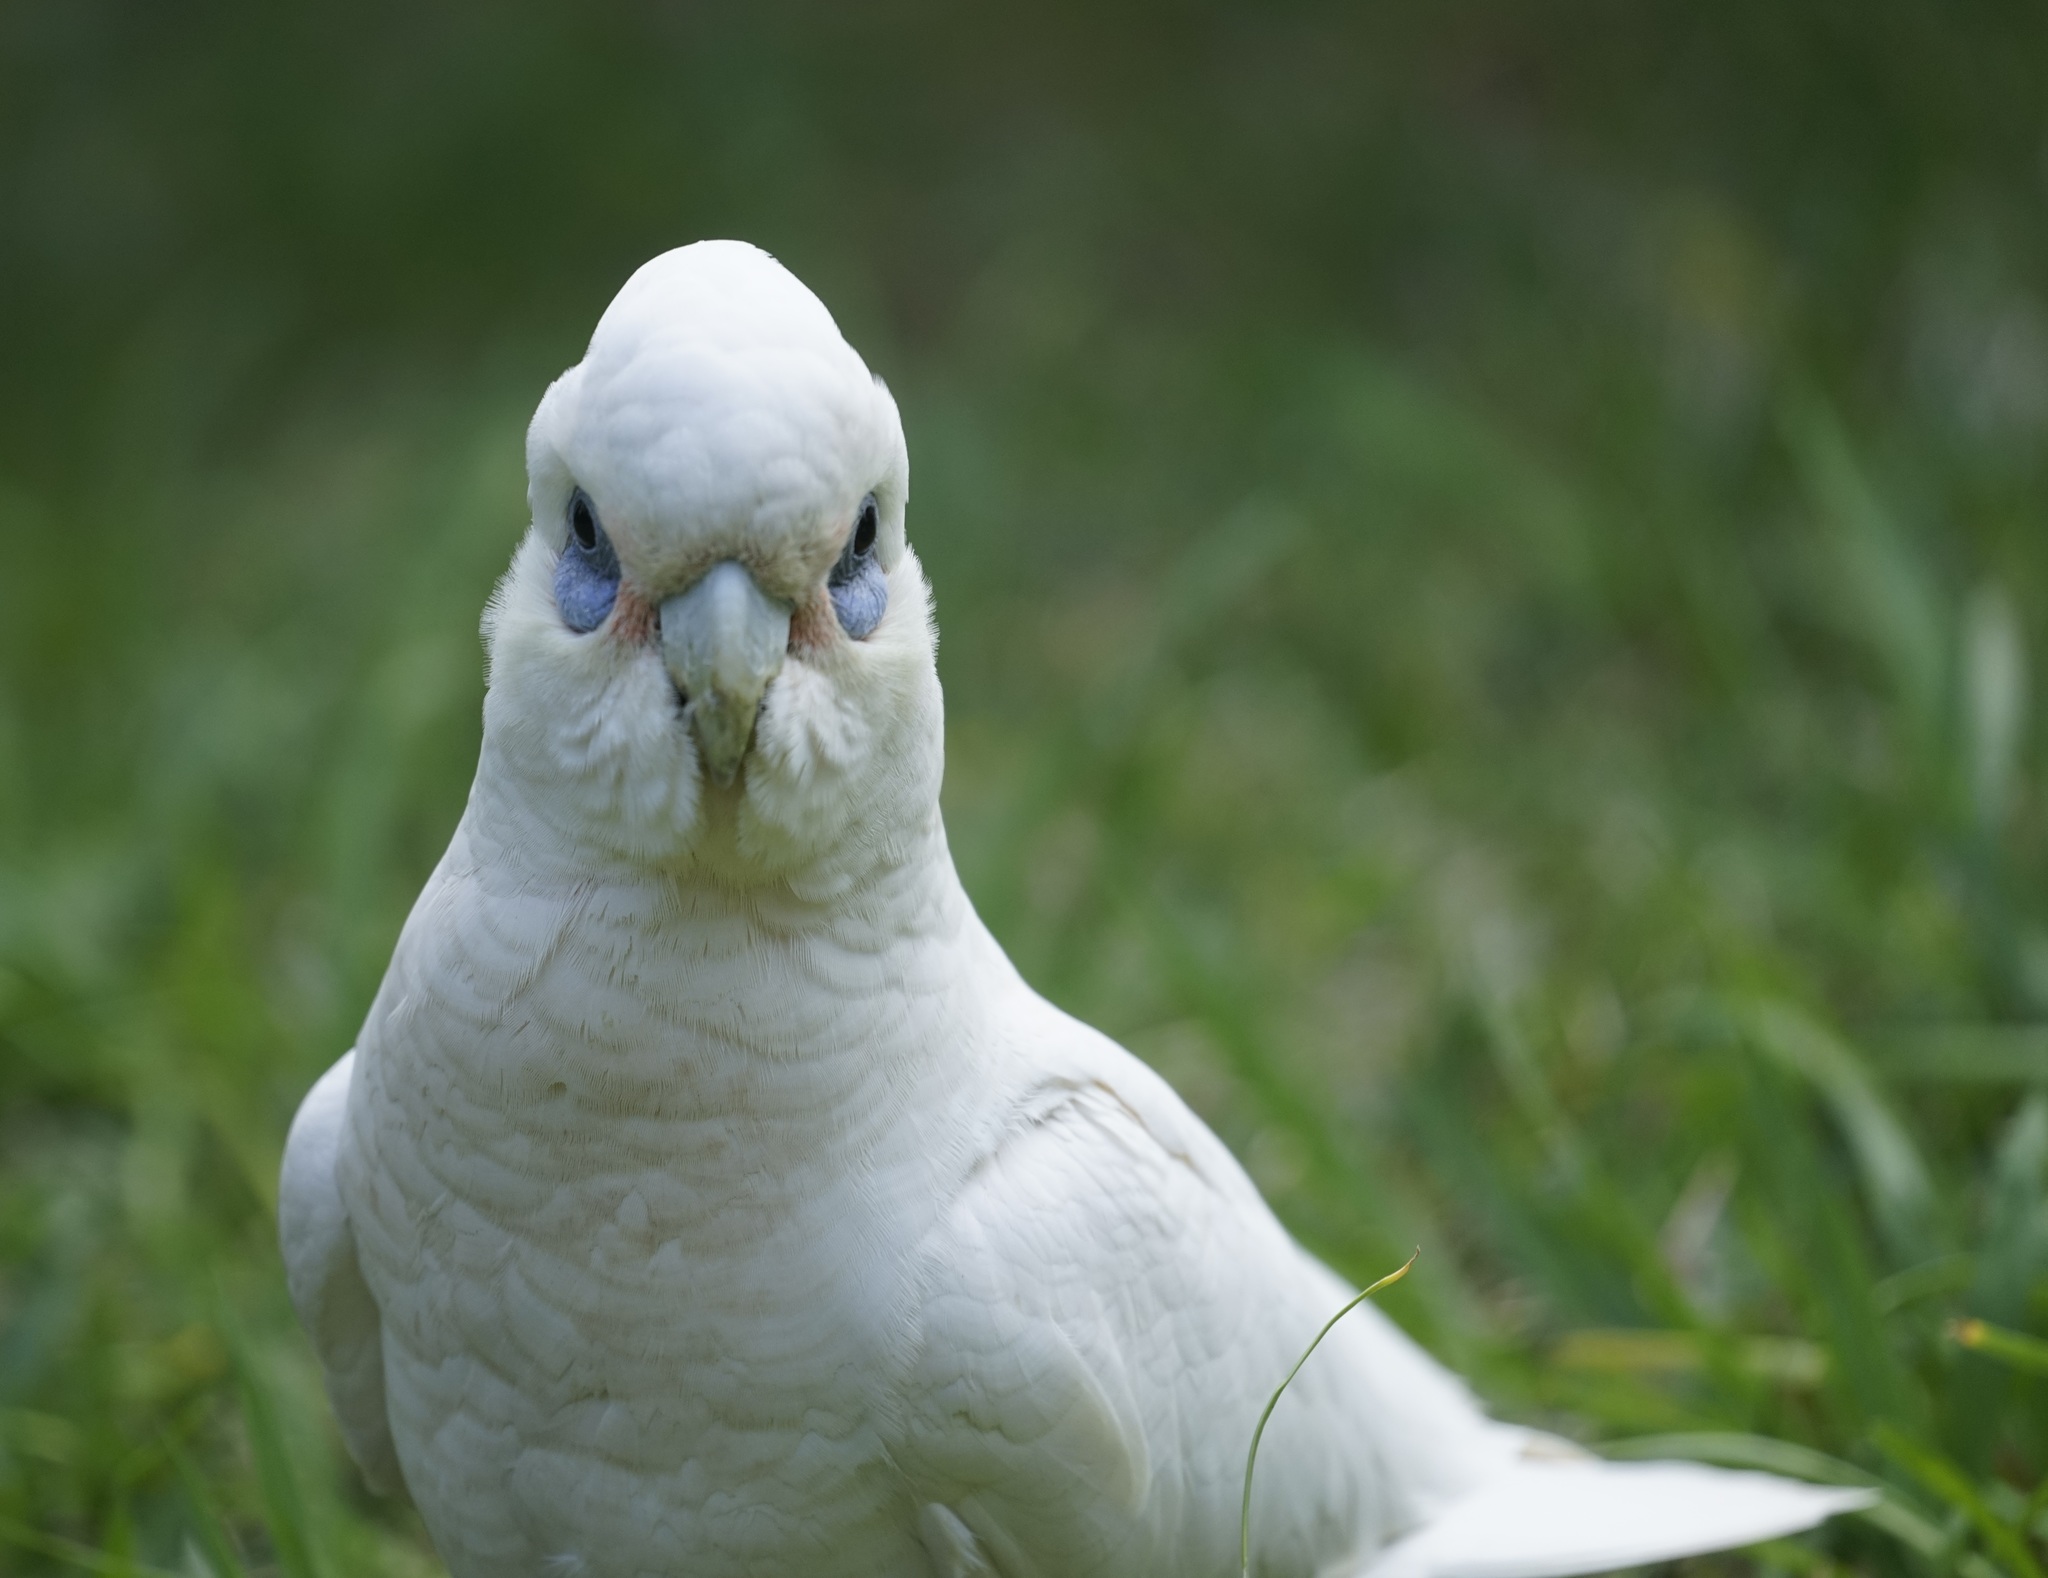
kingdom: Animalia
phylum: Chordata
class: Aves
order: Psittaciformes
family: Psittacidae
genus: Cacatua
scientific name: Cacatua sanguinea
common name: Little corella
